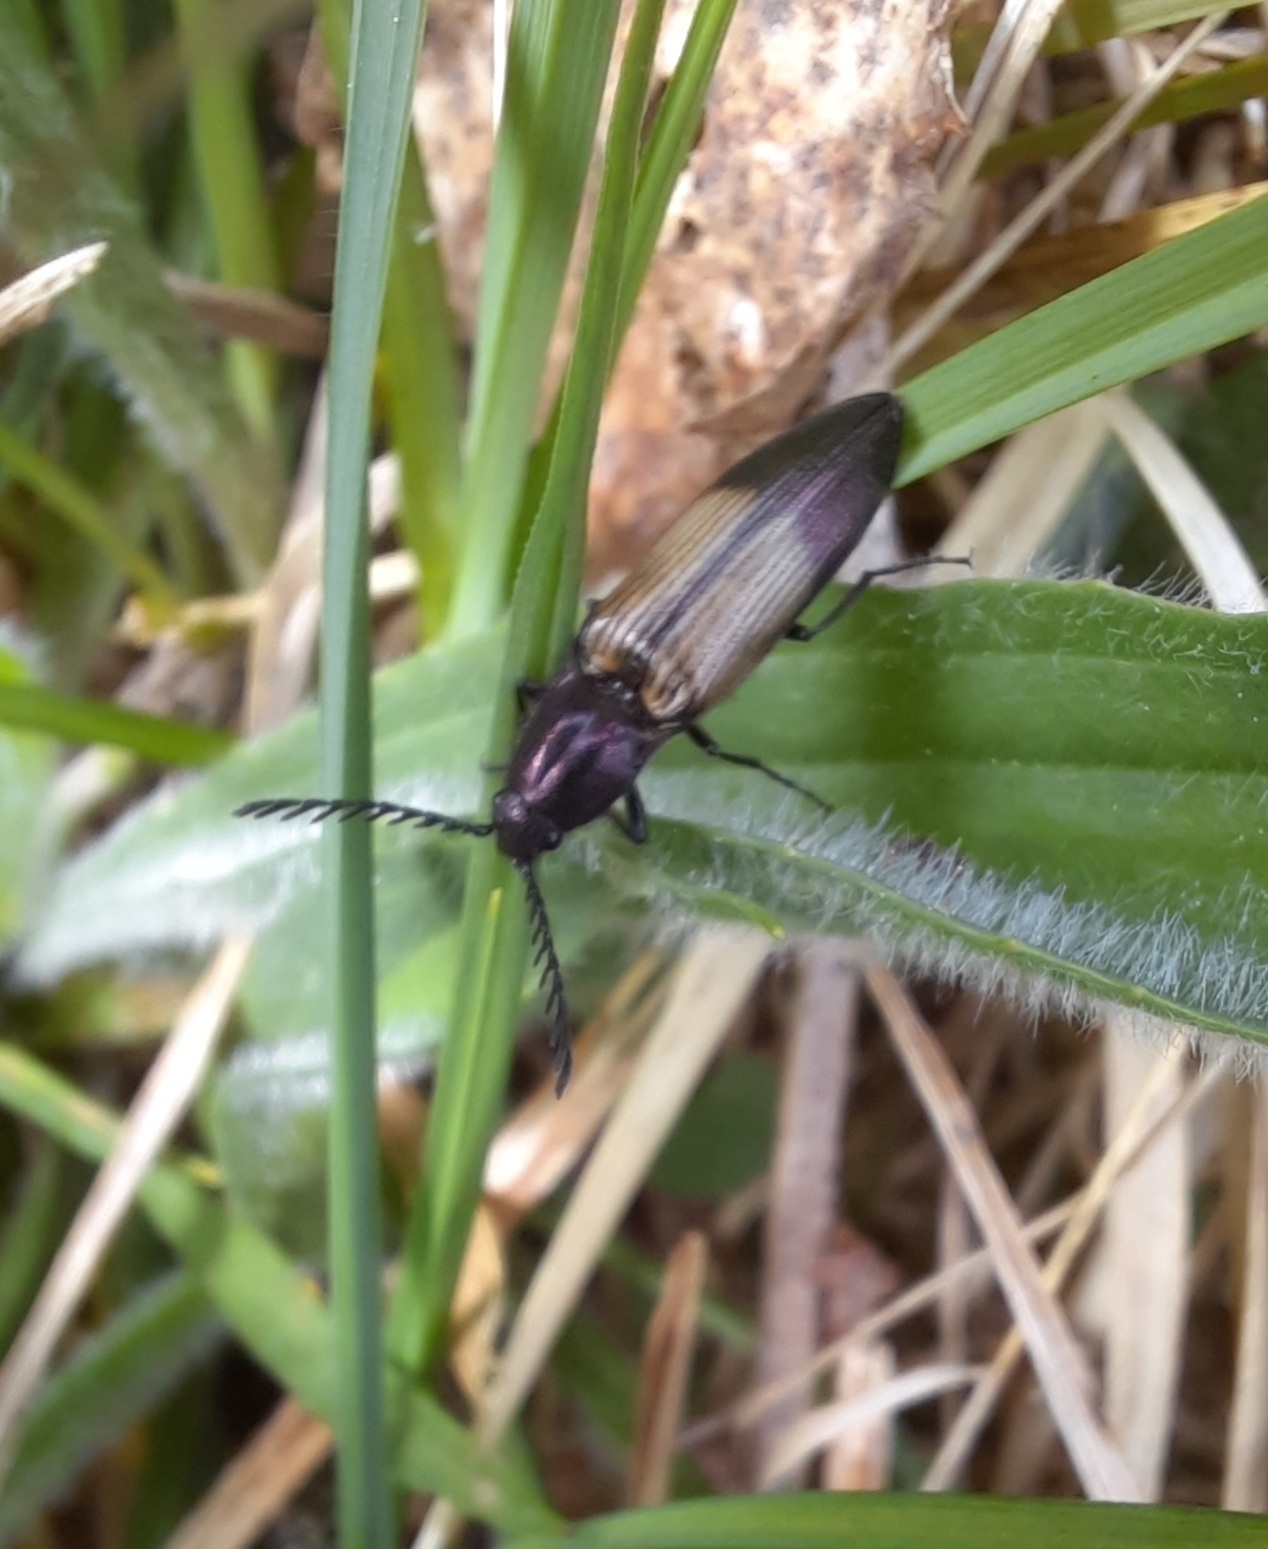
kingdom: Animalia
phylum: Arthropoda
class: Insecta
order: Coleoptera
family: Elateridae
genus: Ctenicera
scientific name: Ctenicera cuprea
